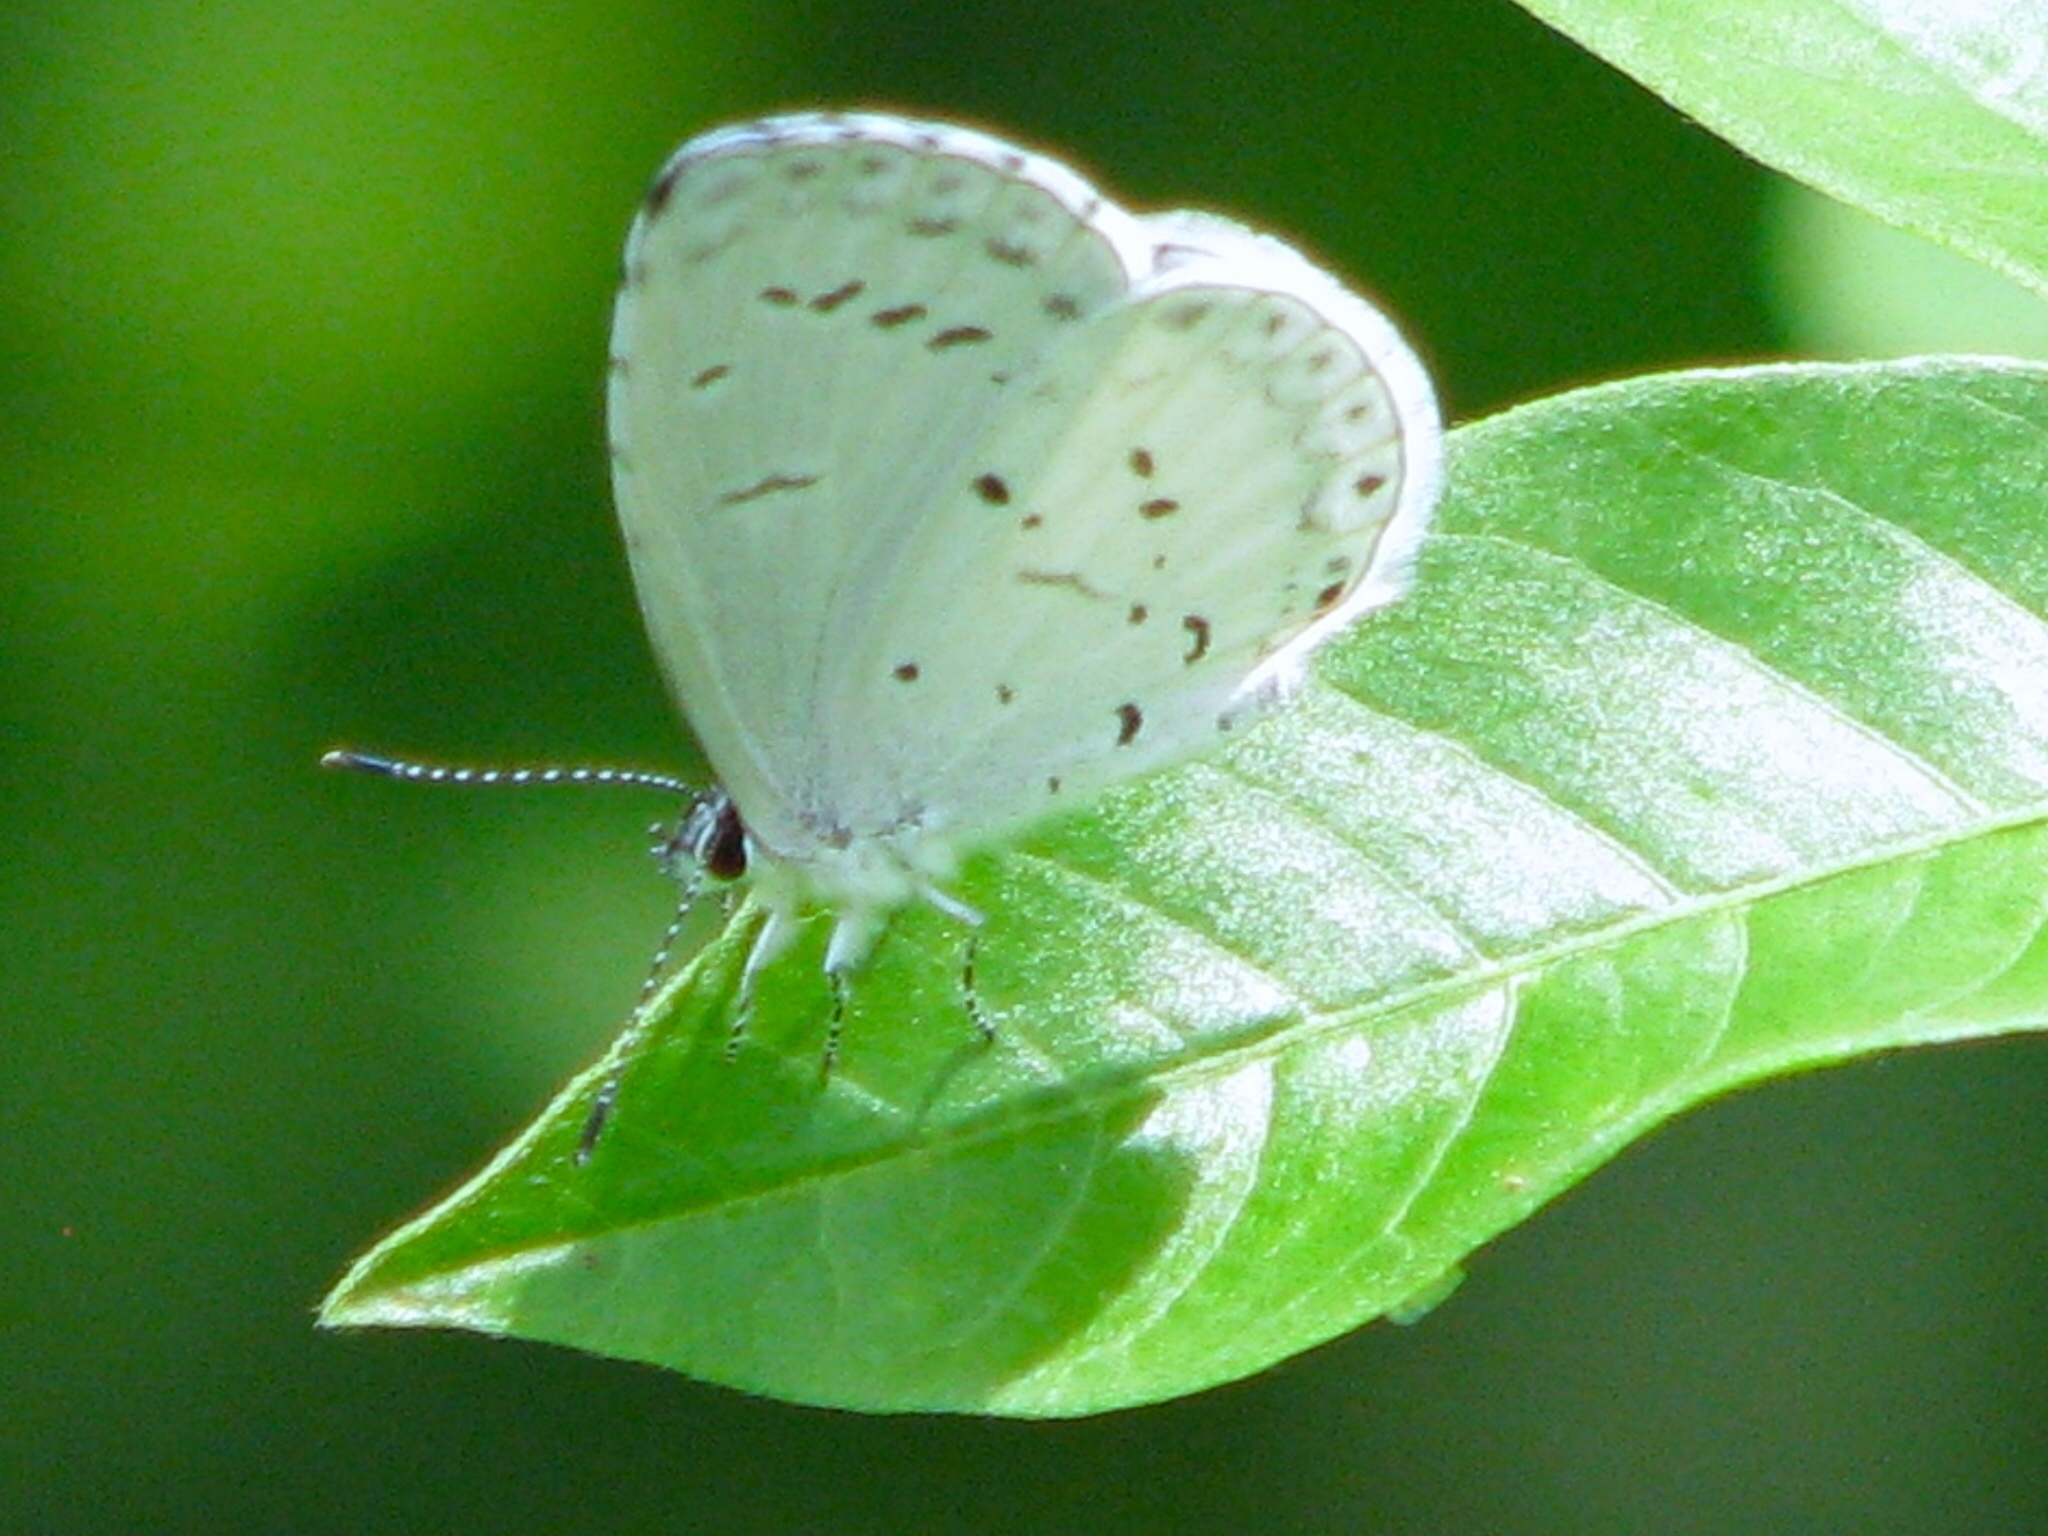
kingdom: Animalia
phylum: Arthropoda
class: Insecta
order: Lepidoptera
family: Lycaenidae
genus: Cyaniris
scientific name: Cyaniris neglecta
